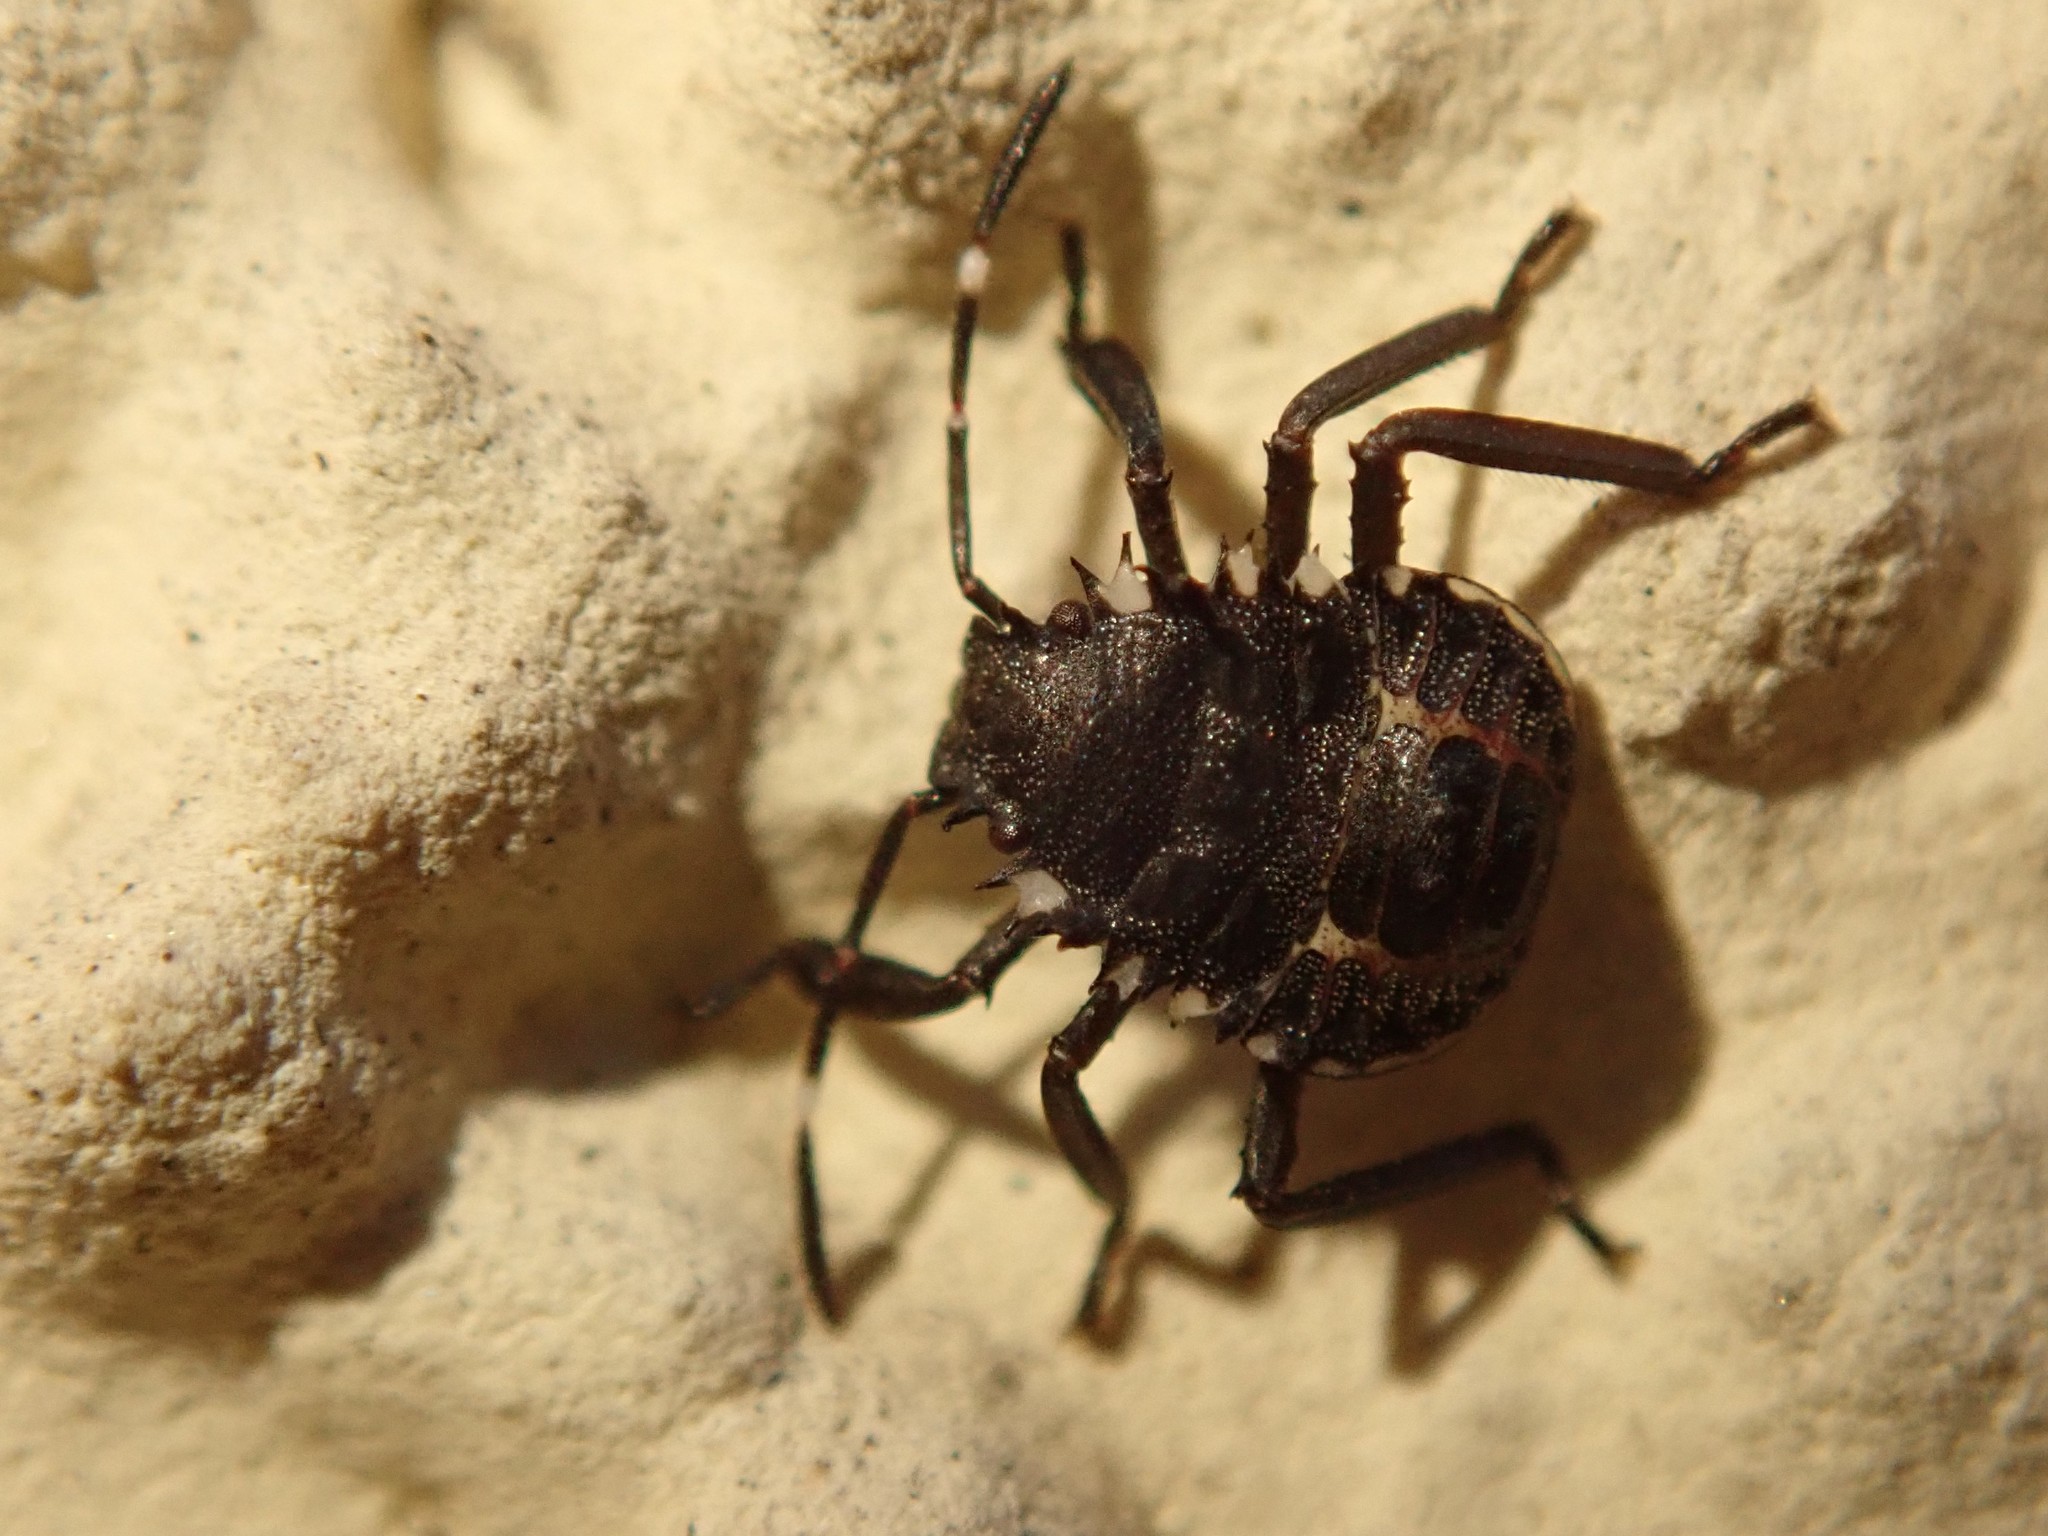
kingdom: Animalia
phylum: Arthropoda
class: Insecta
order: Hemiptera
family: Pentatomidae
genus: Halyomorpha
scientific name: Halyomorpha halys
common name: Brown marmorated stink bug
